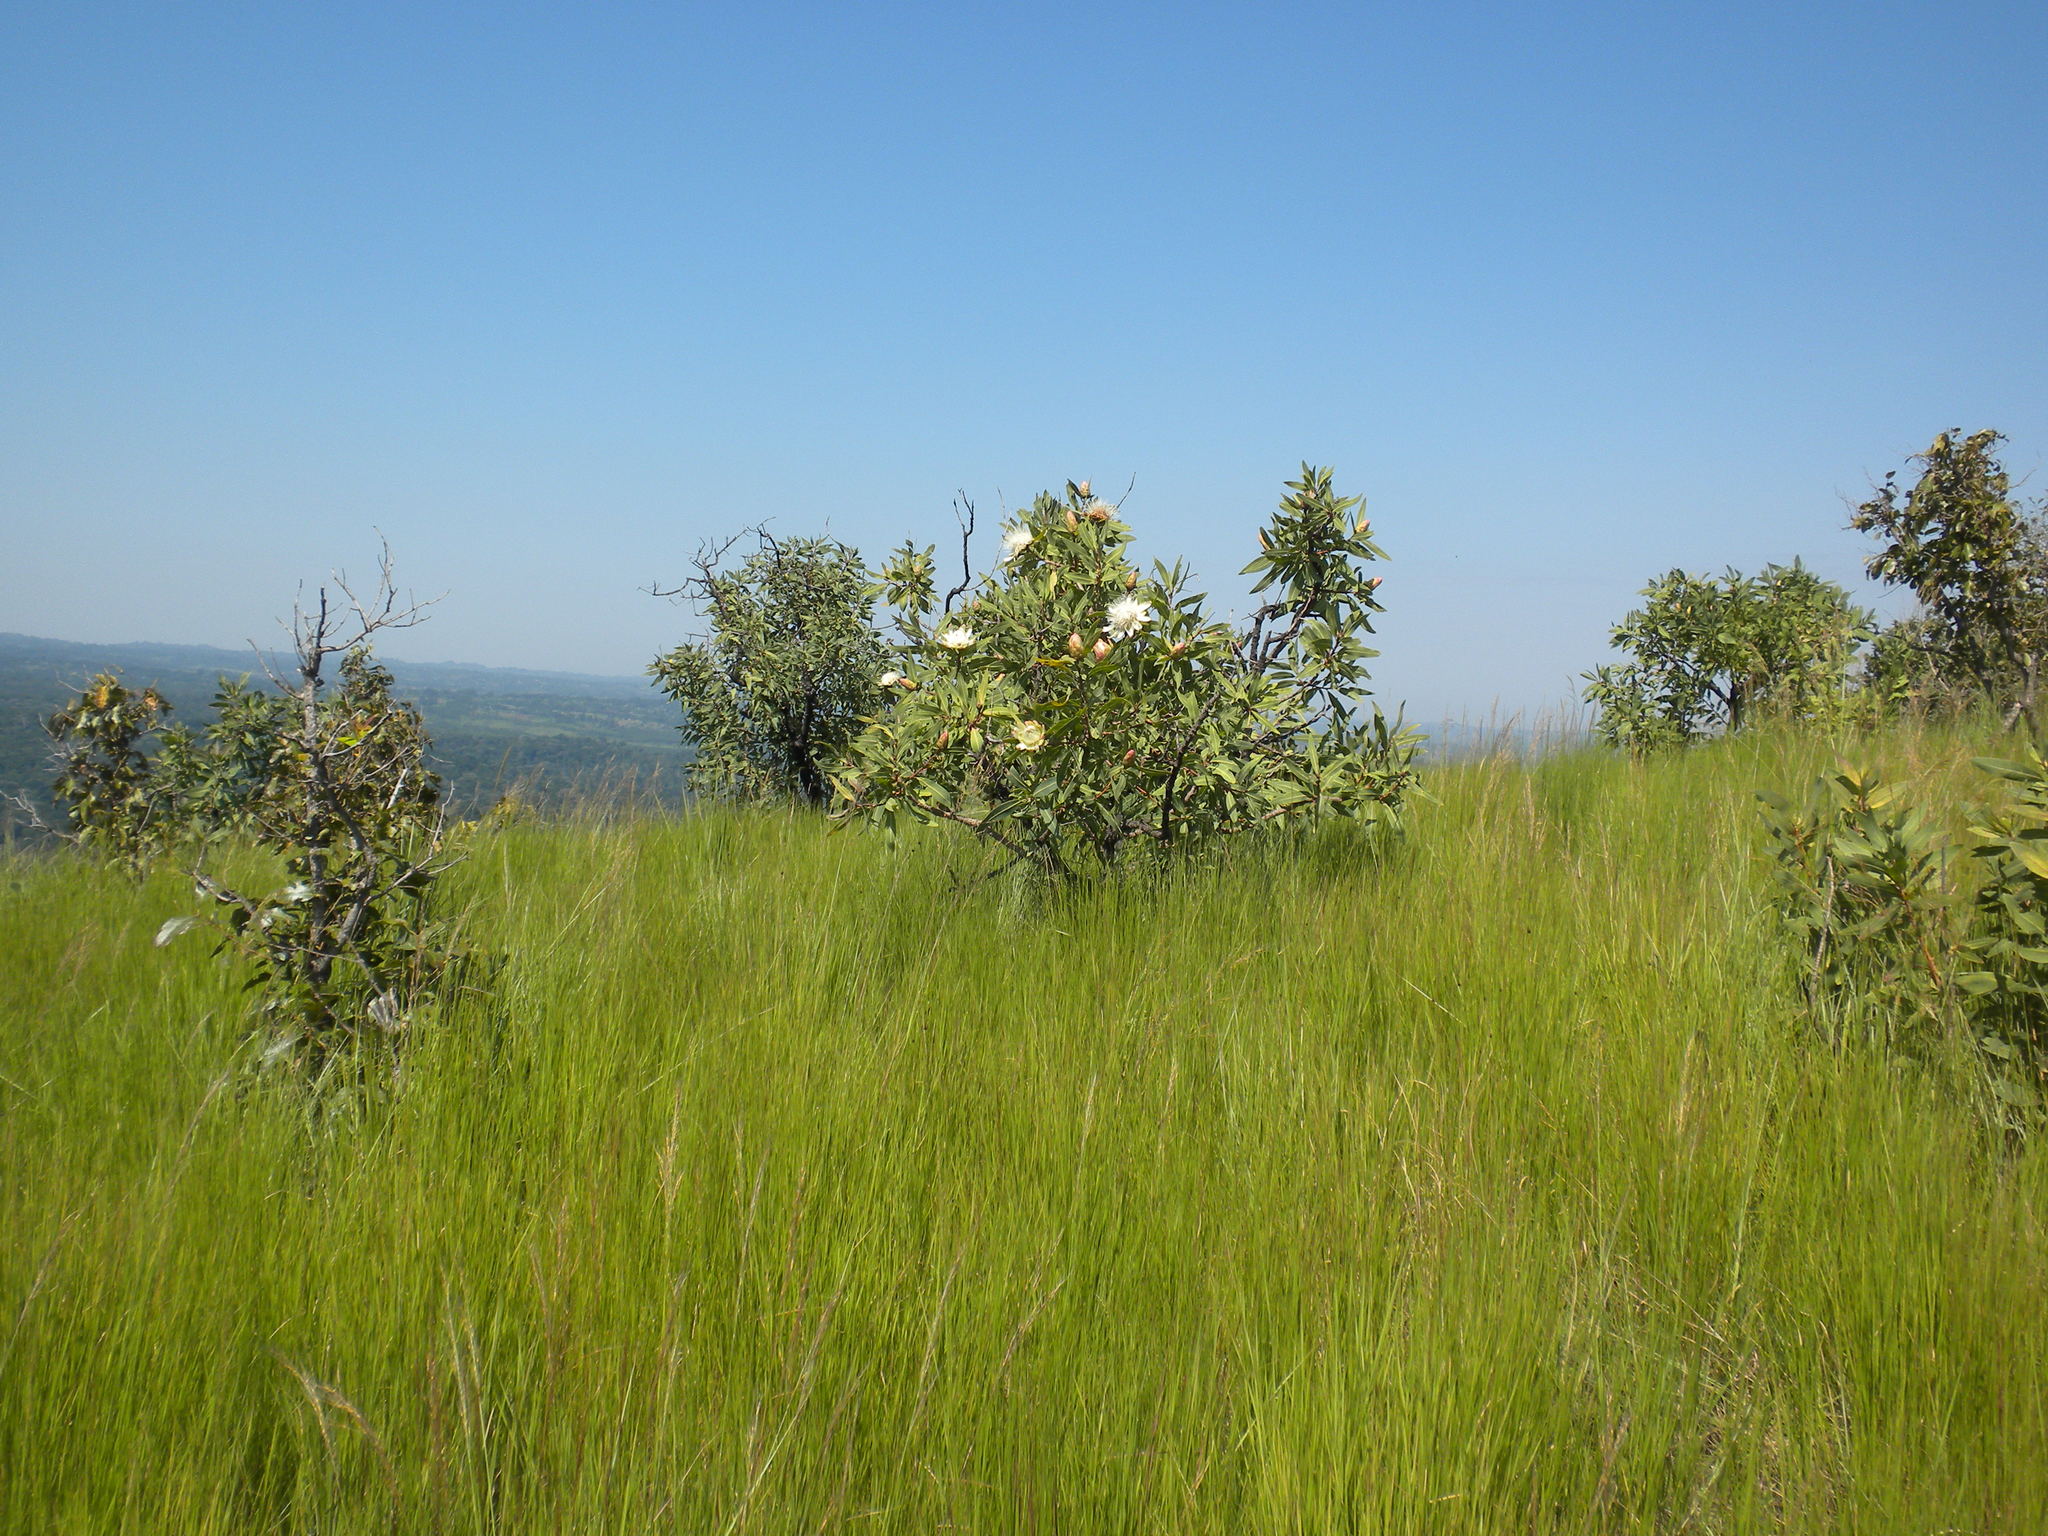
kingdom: Plantae
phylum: Tracheophyta
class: Magnoliopsida
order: Proteales
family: Proteaceae
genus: Protea
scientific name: Protea madiensis
